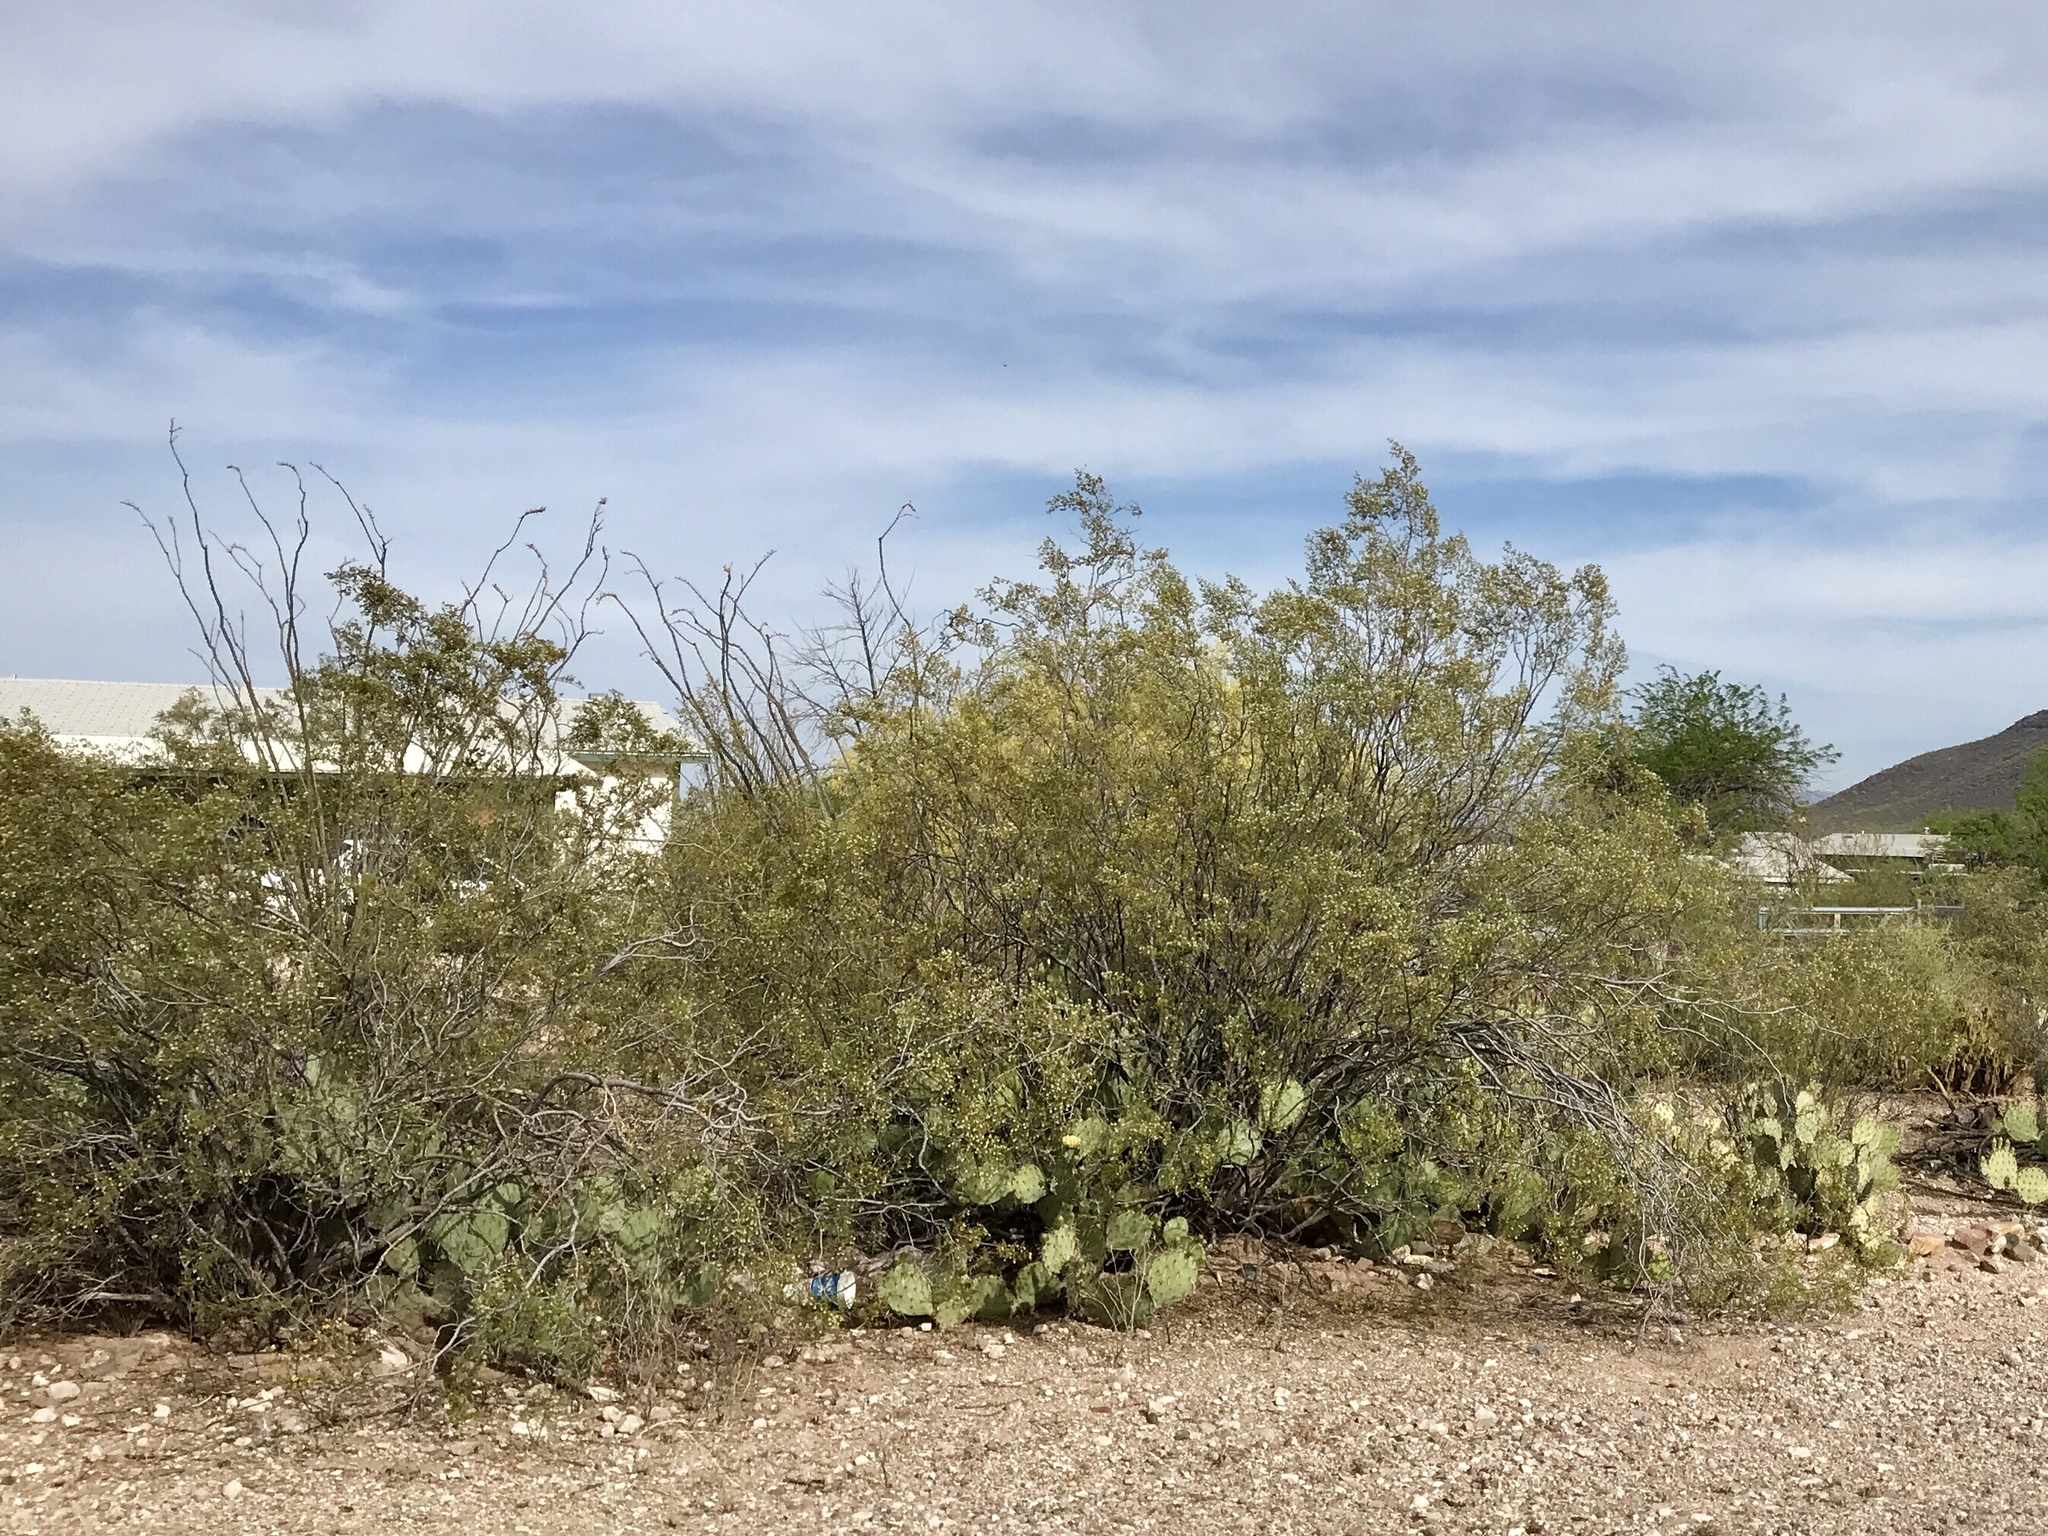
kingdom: Plantae
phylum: Tracheophyta
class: Magnoliopsida
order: Zygophyllales
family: Zygophyllaceae
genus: Larrea
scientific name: Larrea tridentata
